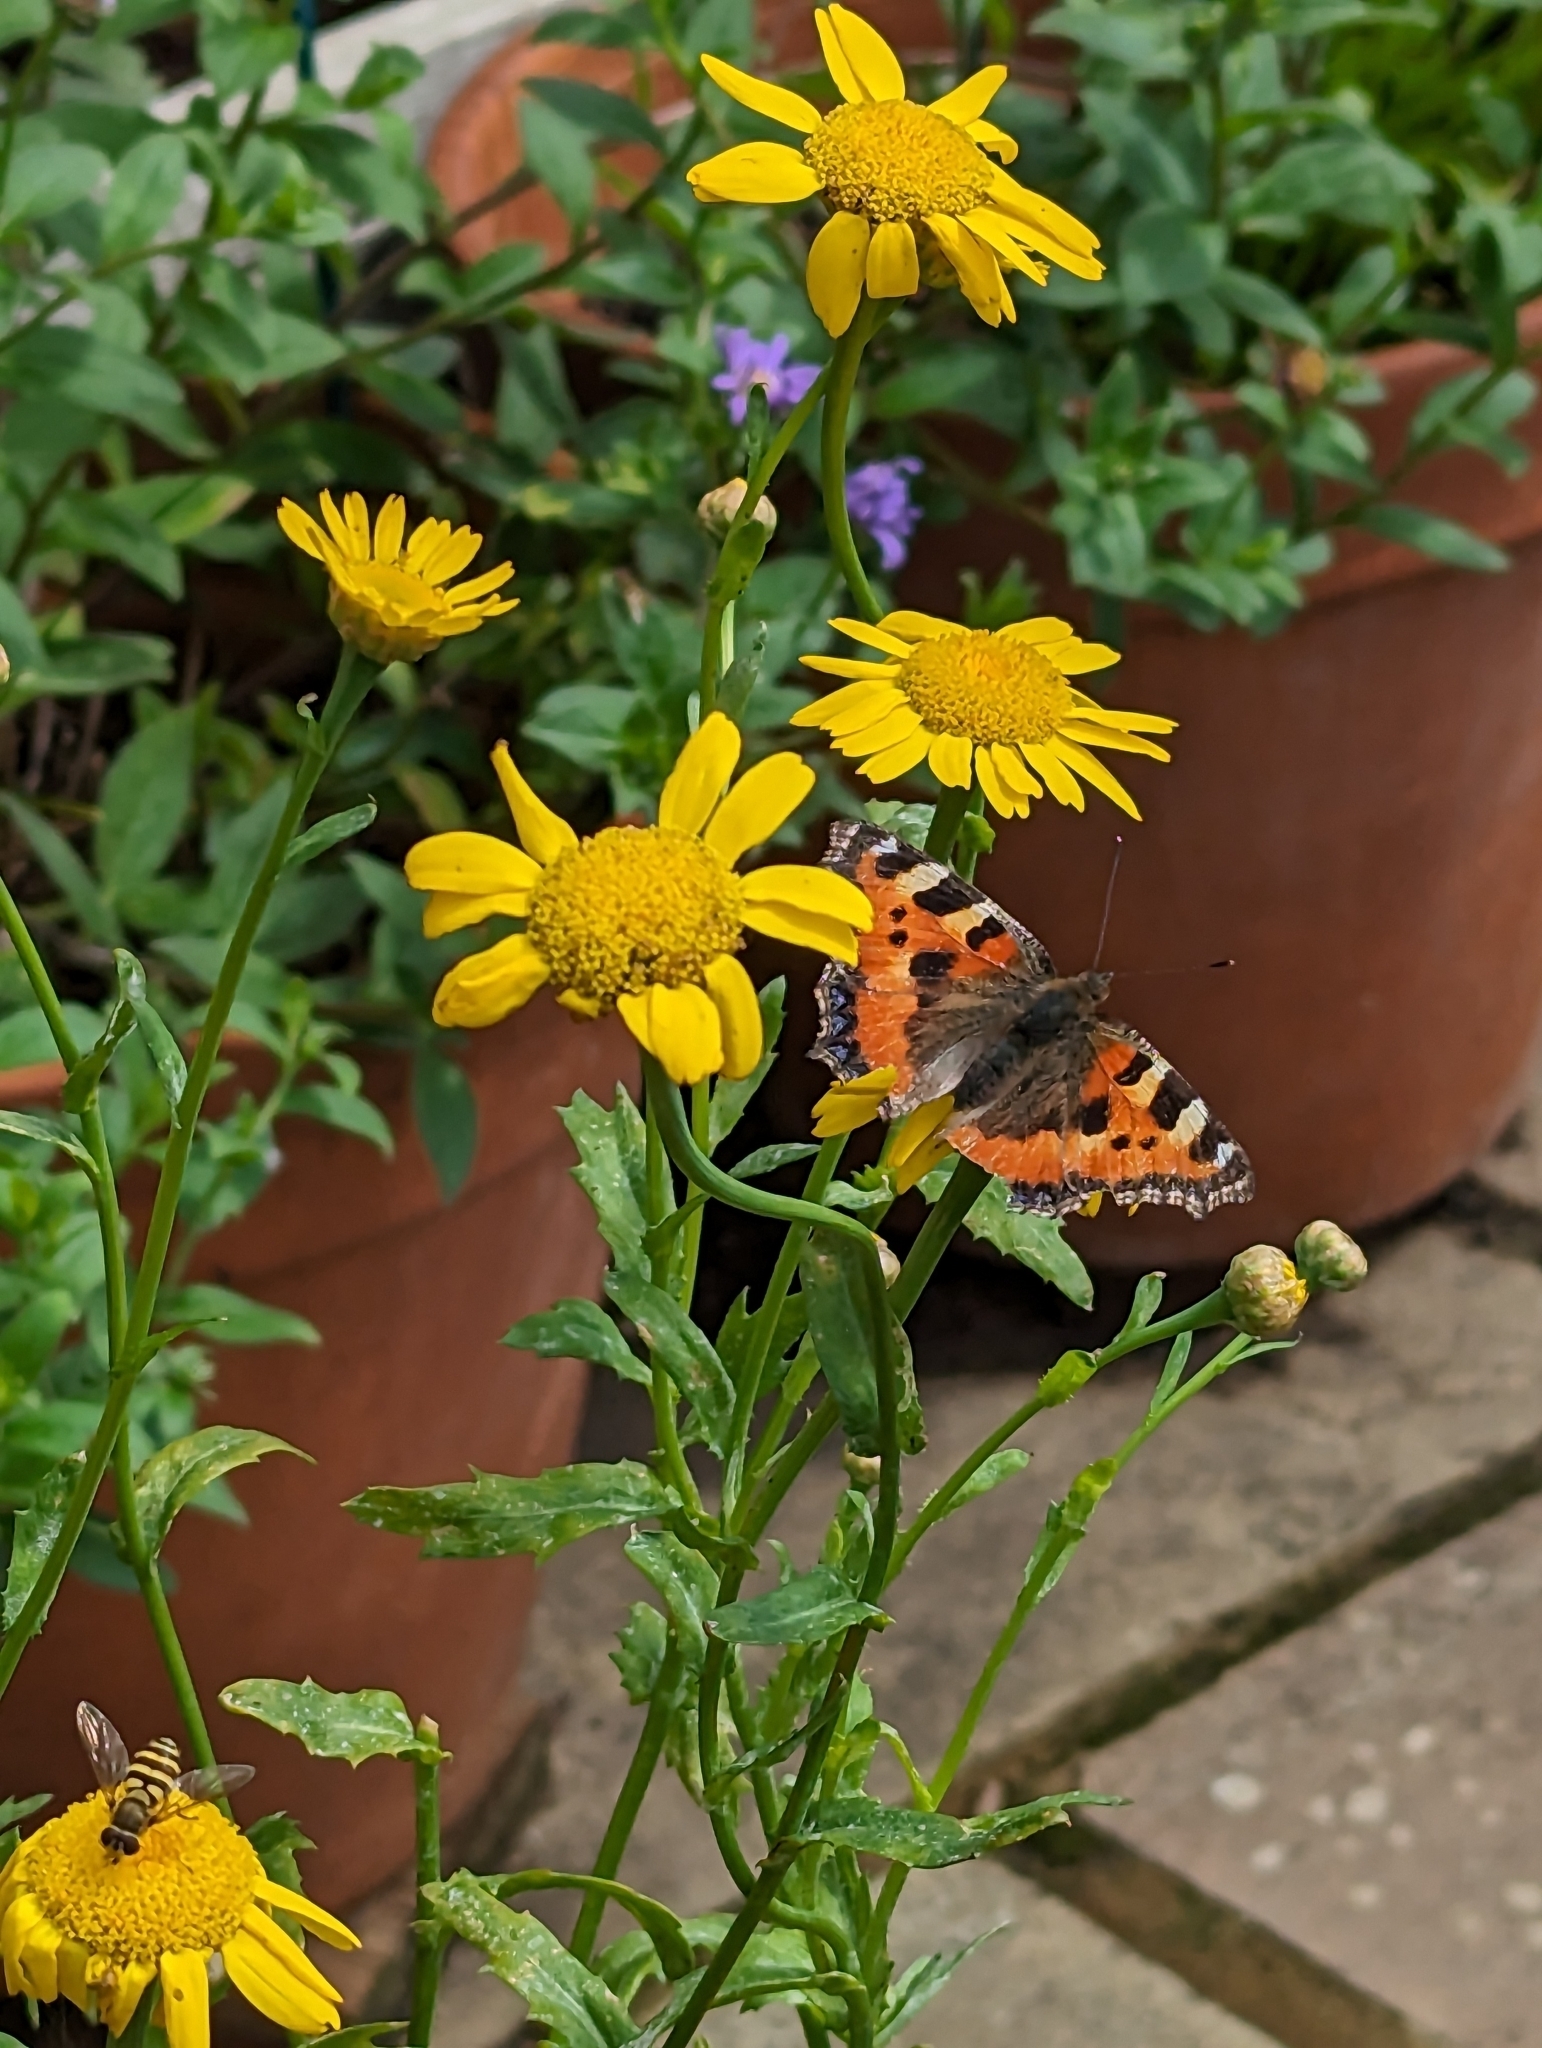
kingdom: Animalia
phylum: Arthropoda
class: Insecta
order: Lepidoptera
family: Nymphalidae
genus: Aglais
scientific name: Aglais urticae
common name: Small tortoiseshell
